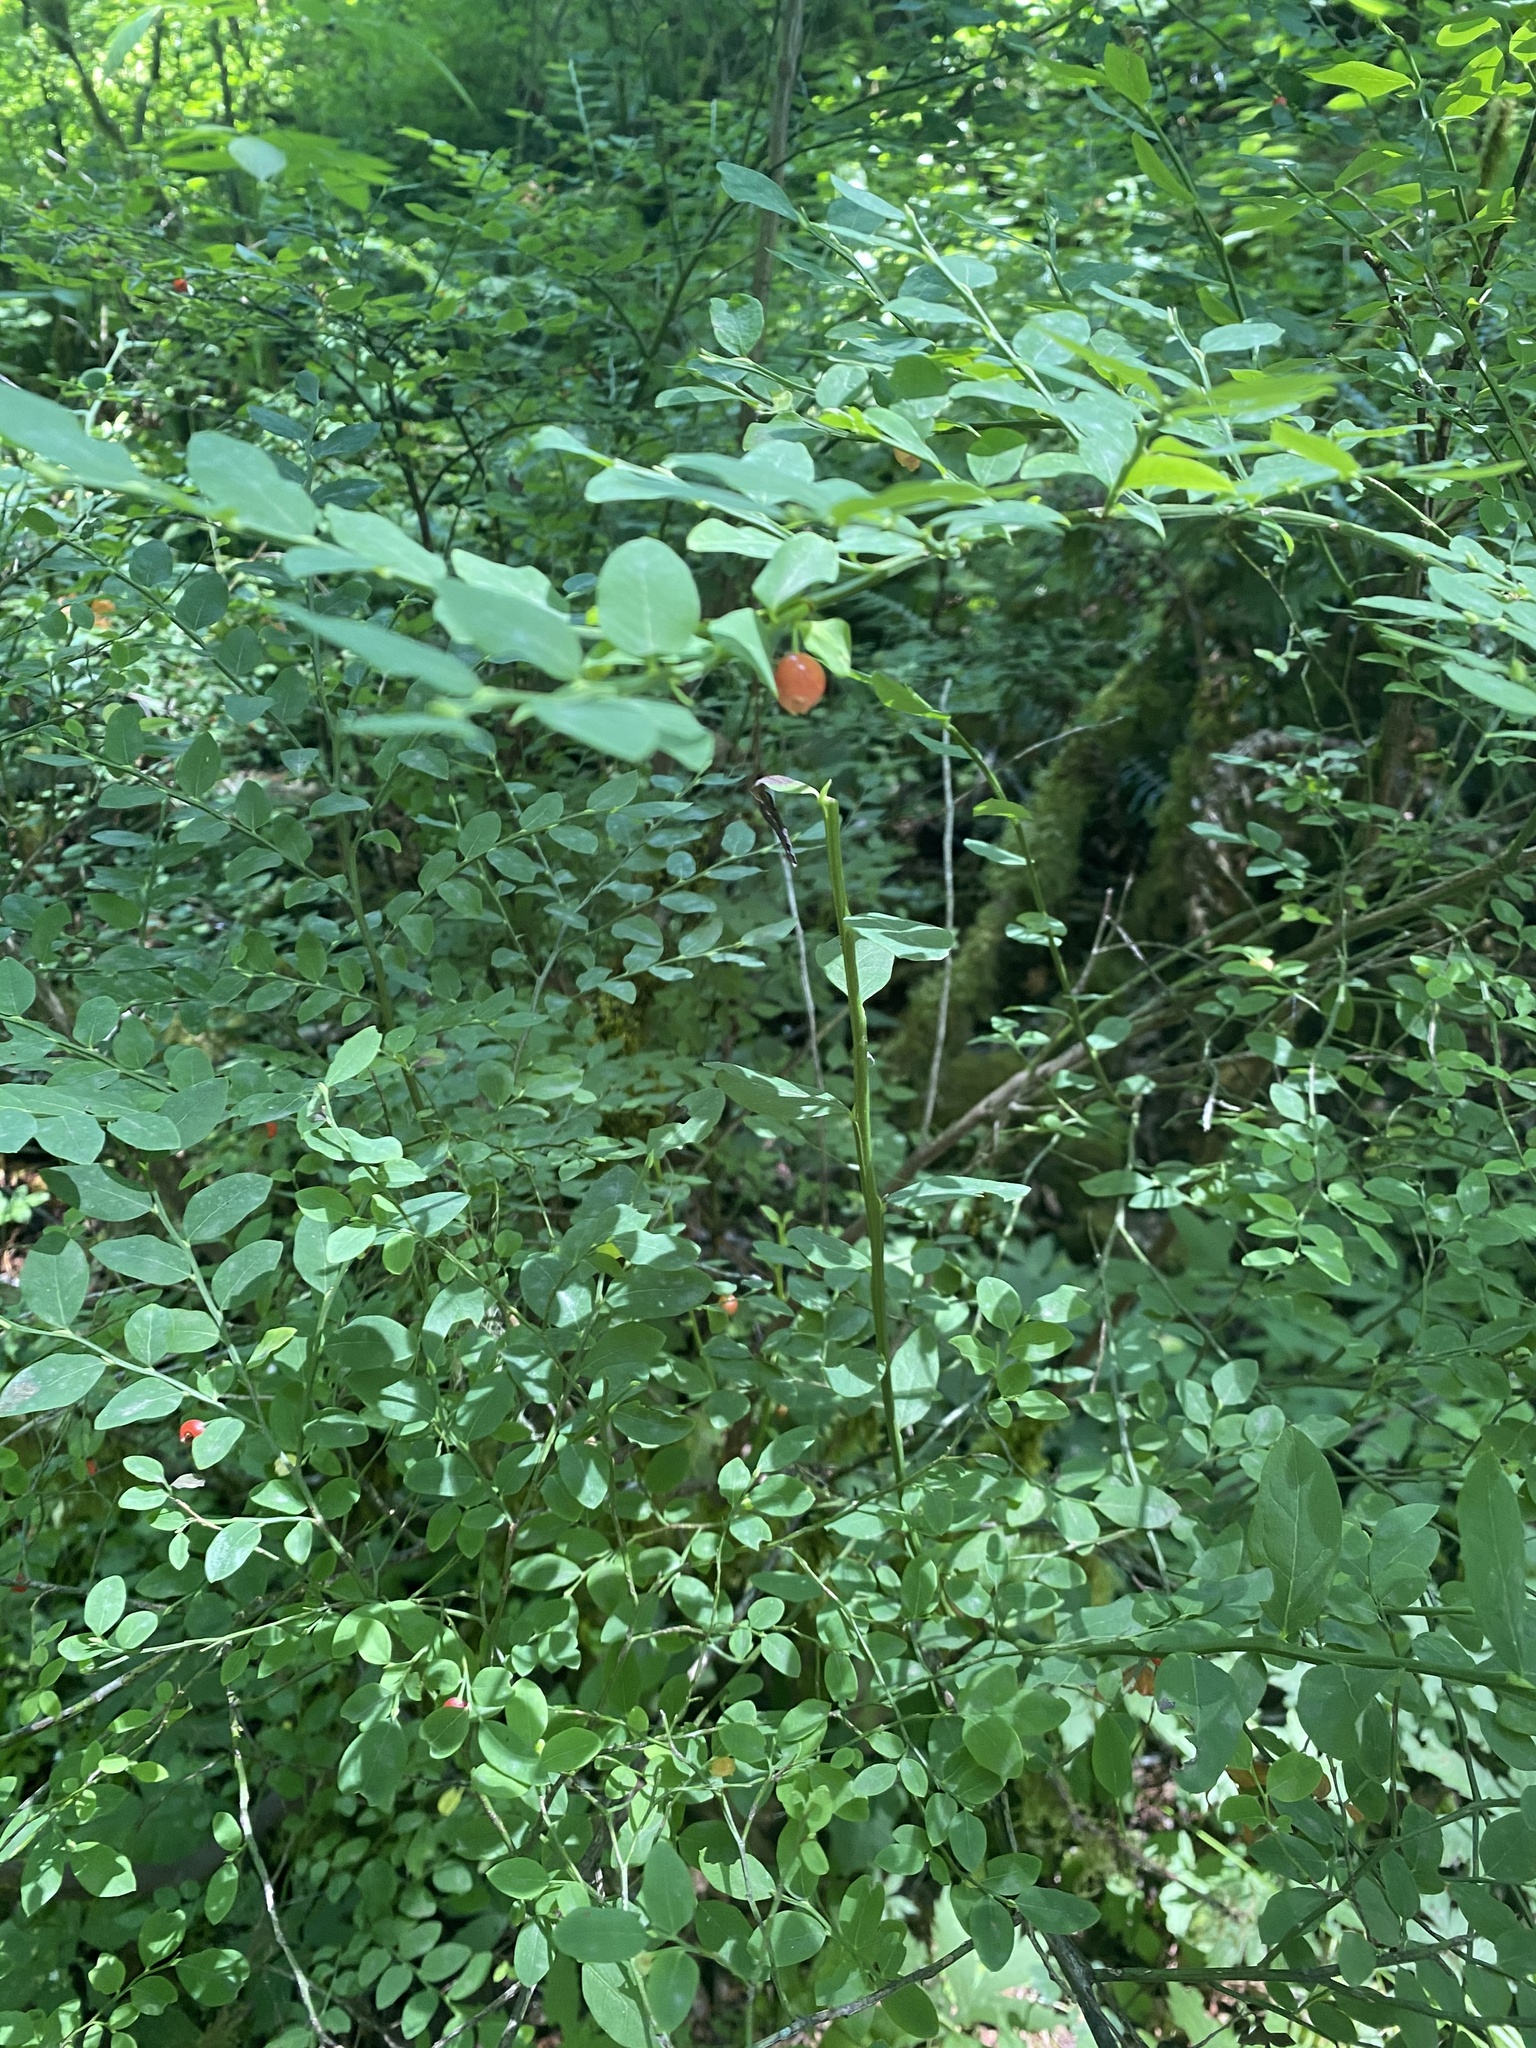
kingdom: Plantae
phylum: Tracheophyta
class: Magnoliopsida
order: Ericales
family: Ericaceae
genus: Vaccinium
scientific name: Vaccinium parvifolium
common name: Red-huckleberry
